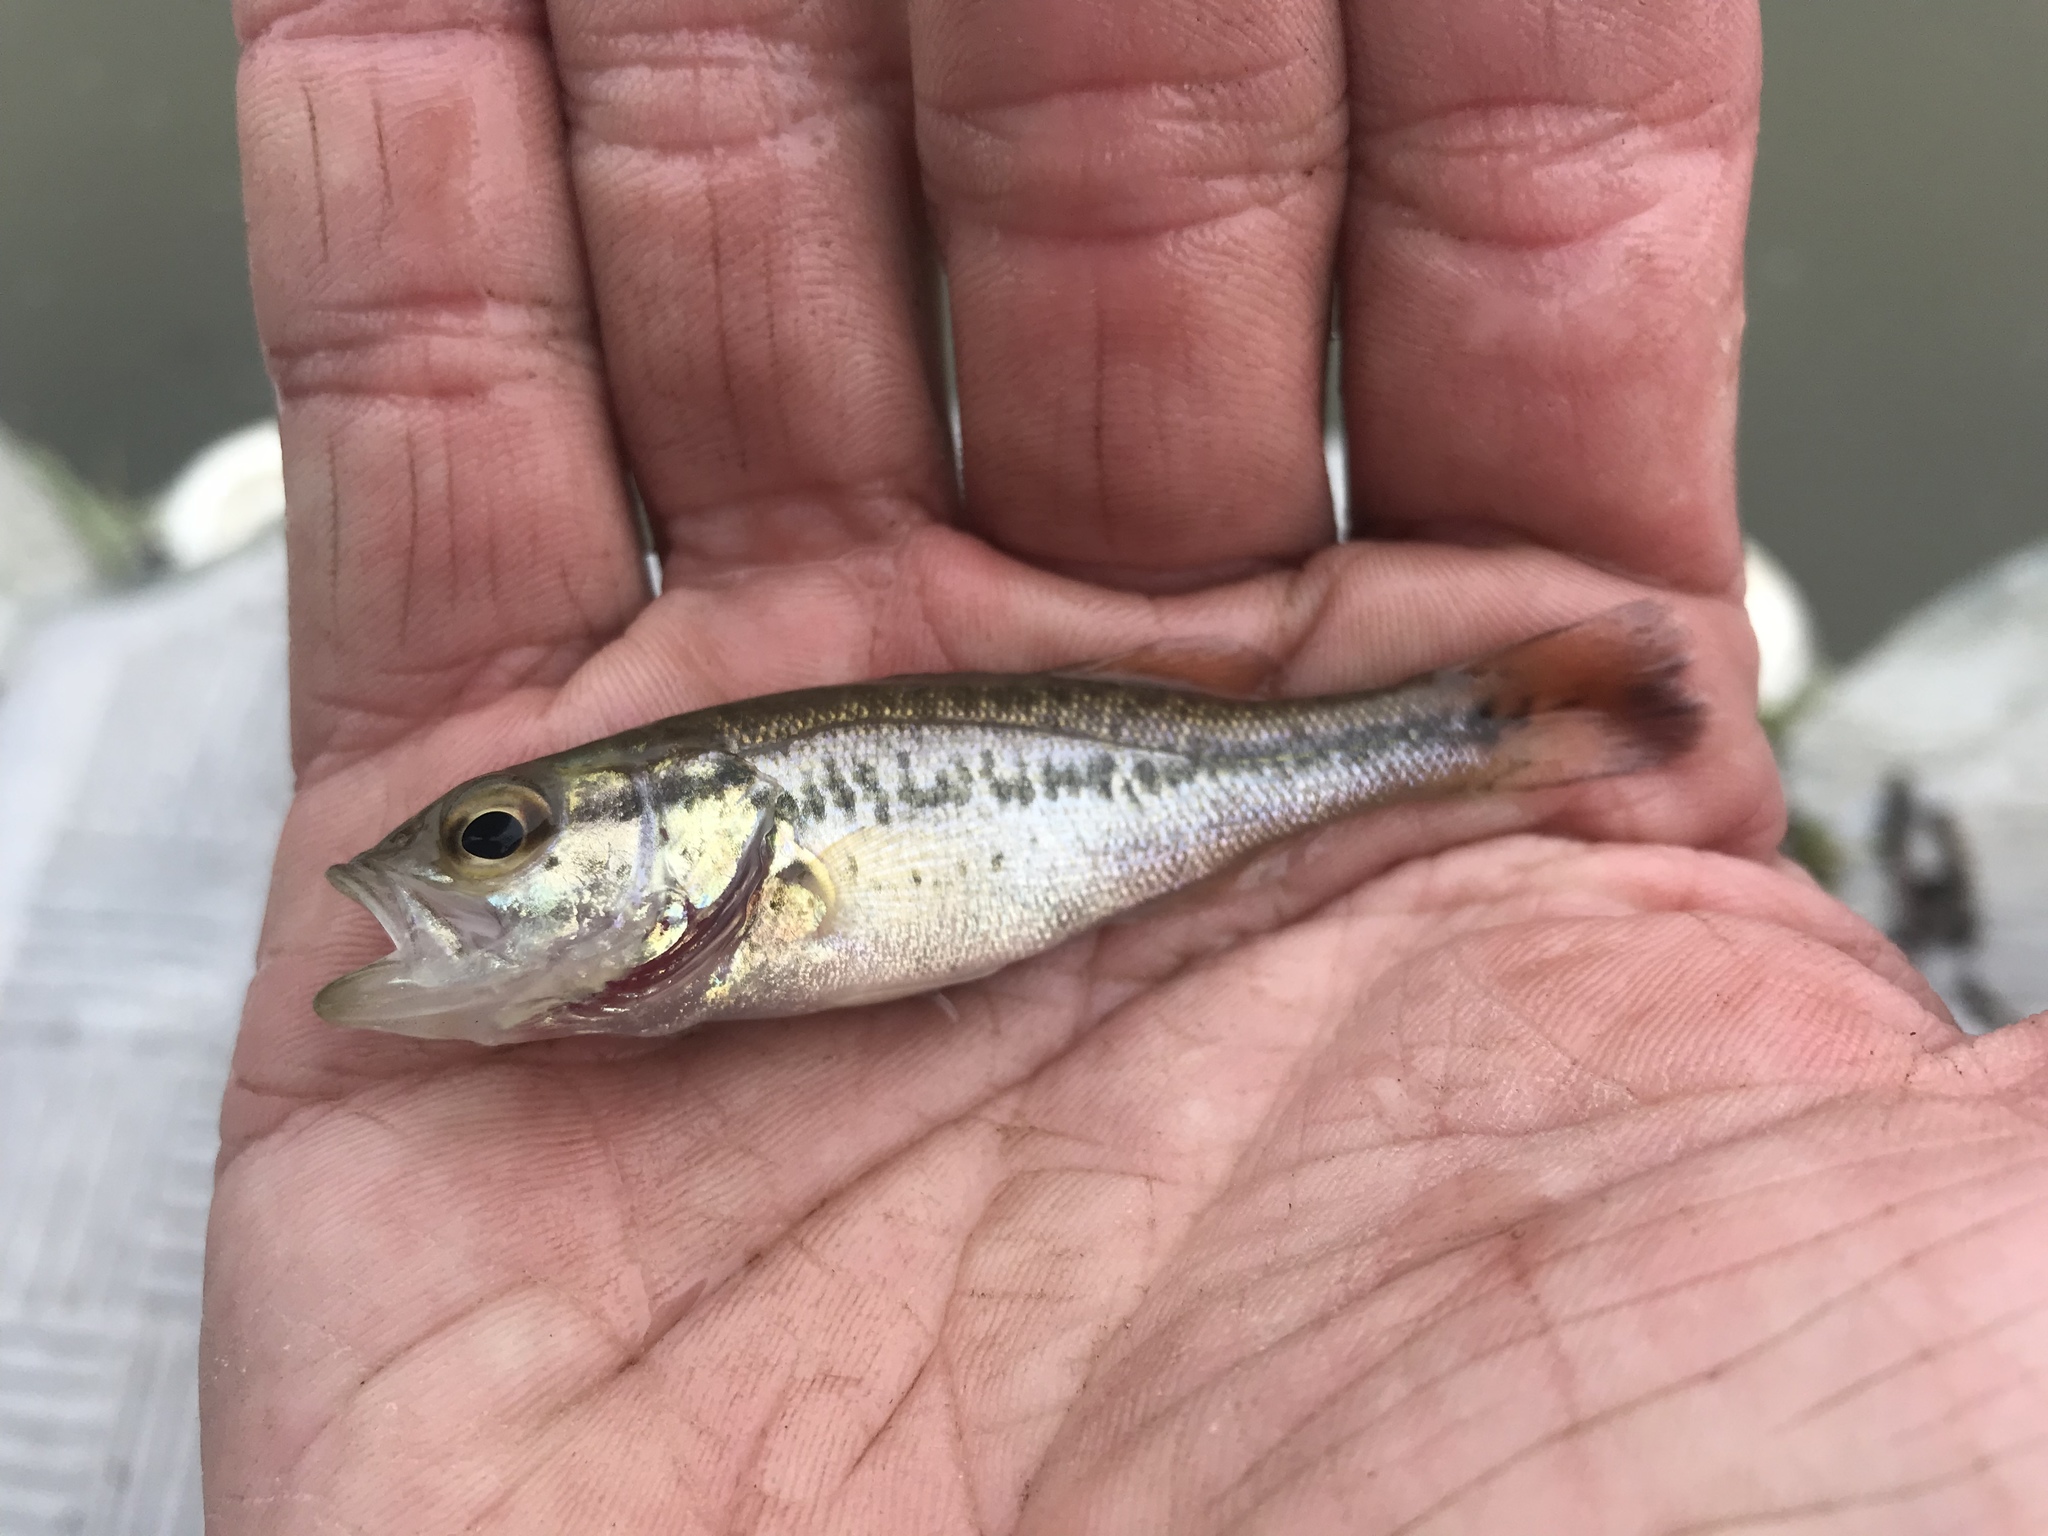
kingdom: Animalia
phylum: Chordata
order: Perciformes
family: Centrarchidae
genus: Micropterus
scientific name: Micropterus
